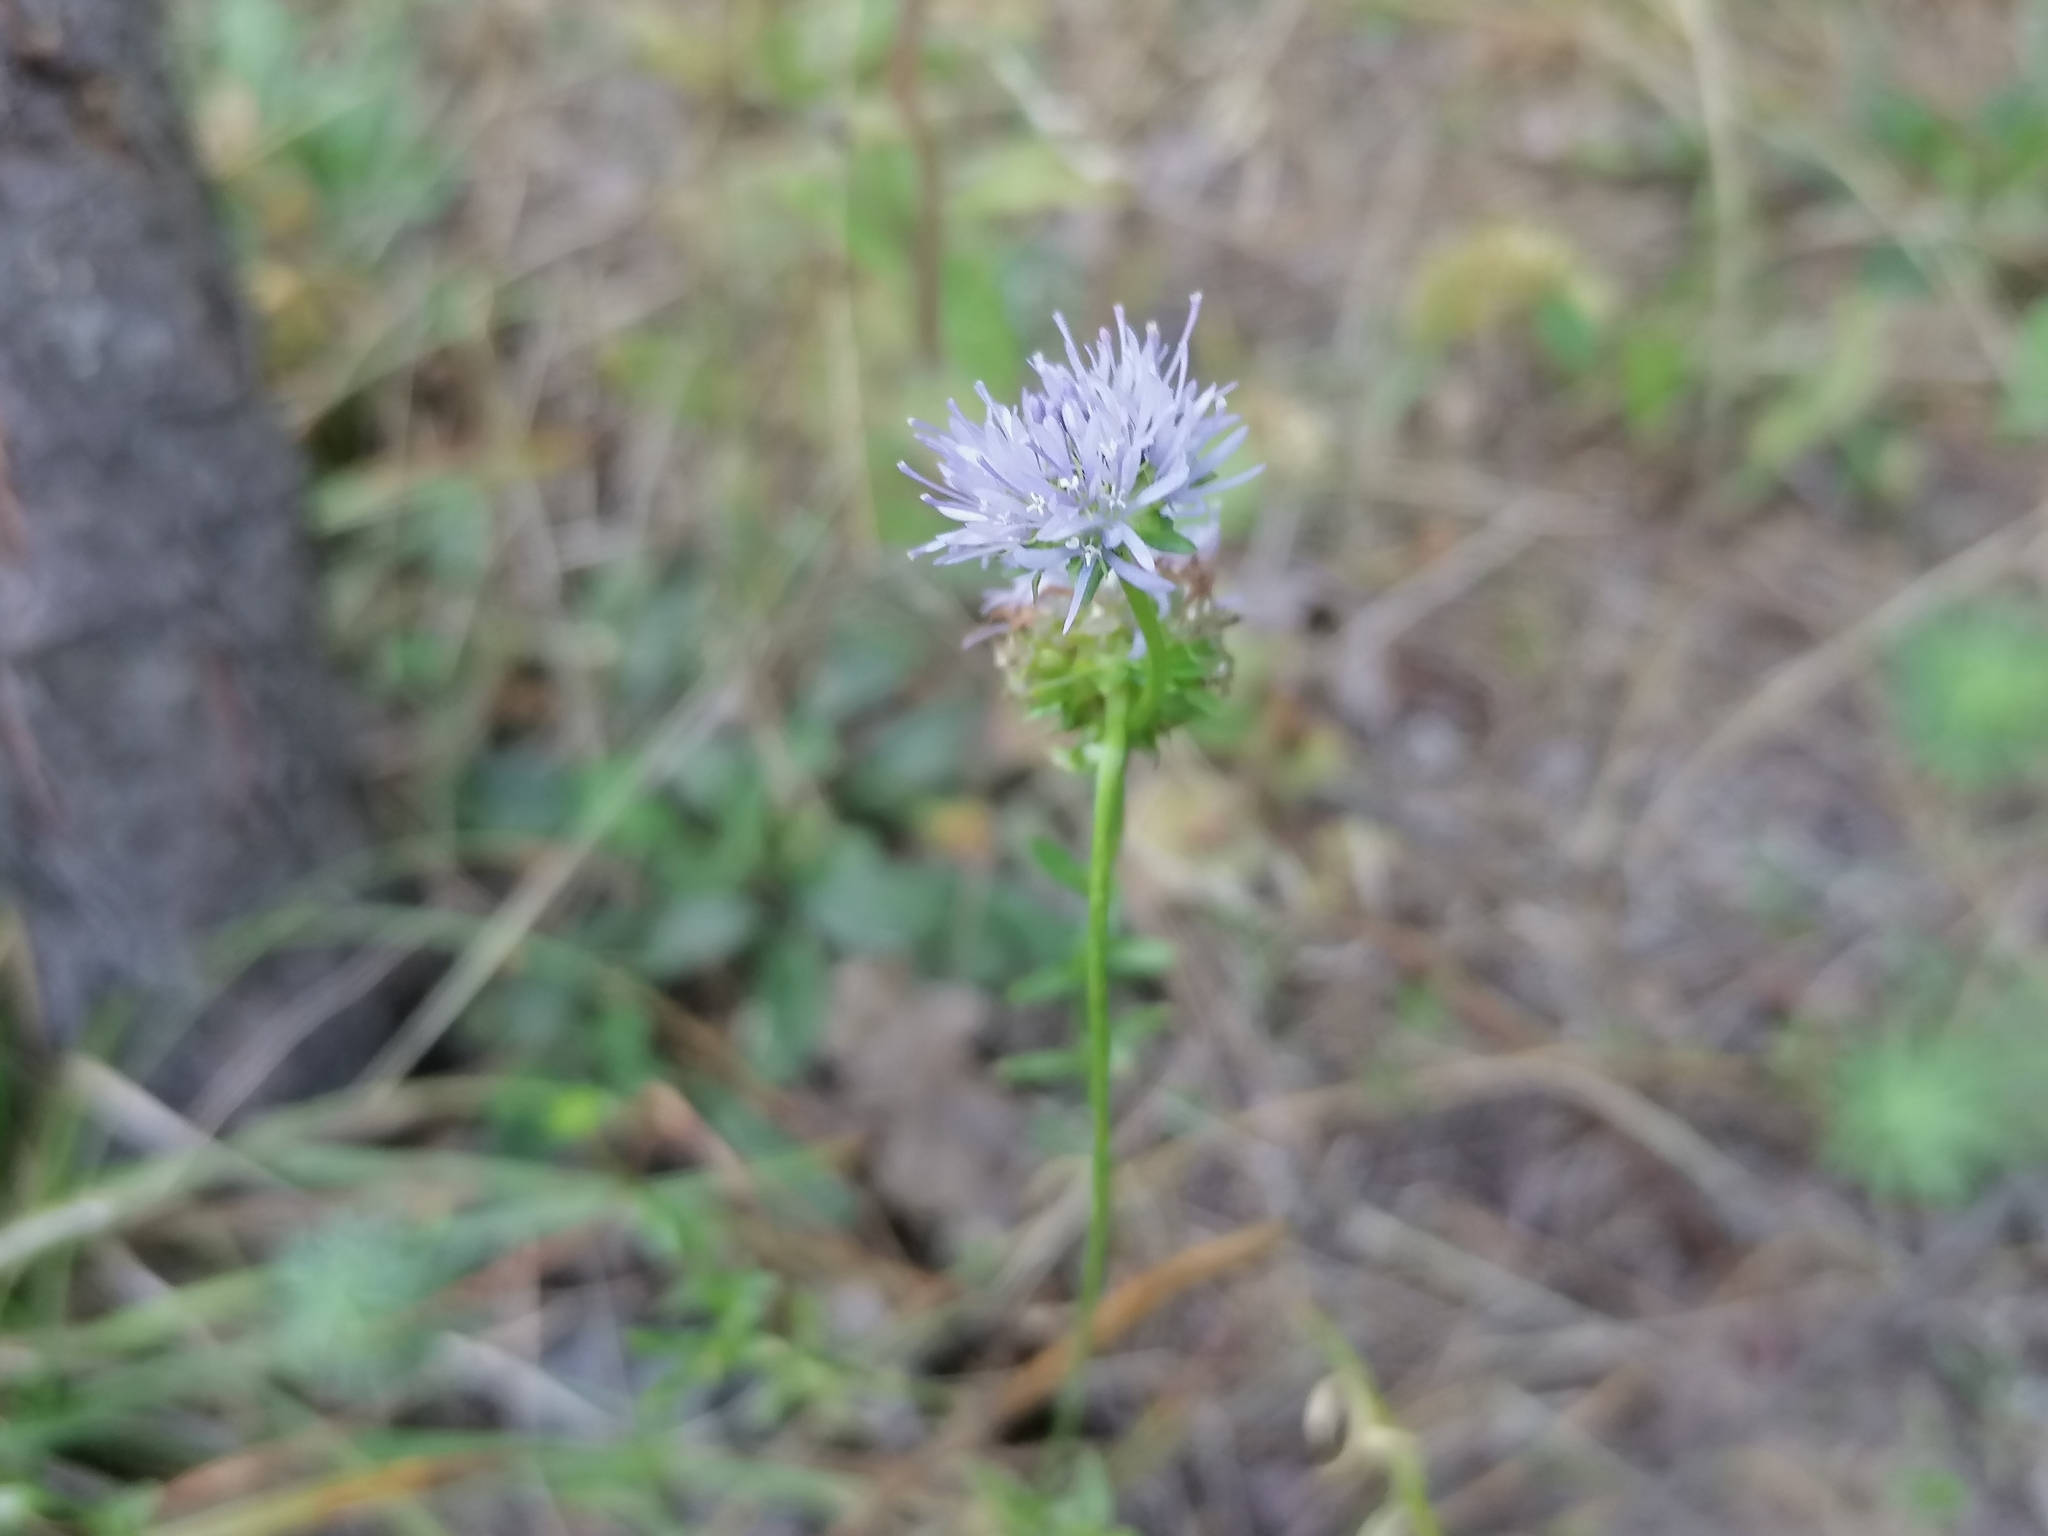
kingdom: Plantae
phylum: Tracheophyta
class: Magnoliopsida
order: Asterales
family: Campanulaceae
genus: Jasione
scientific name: Jasione montana
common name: Sheep's-bit
